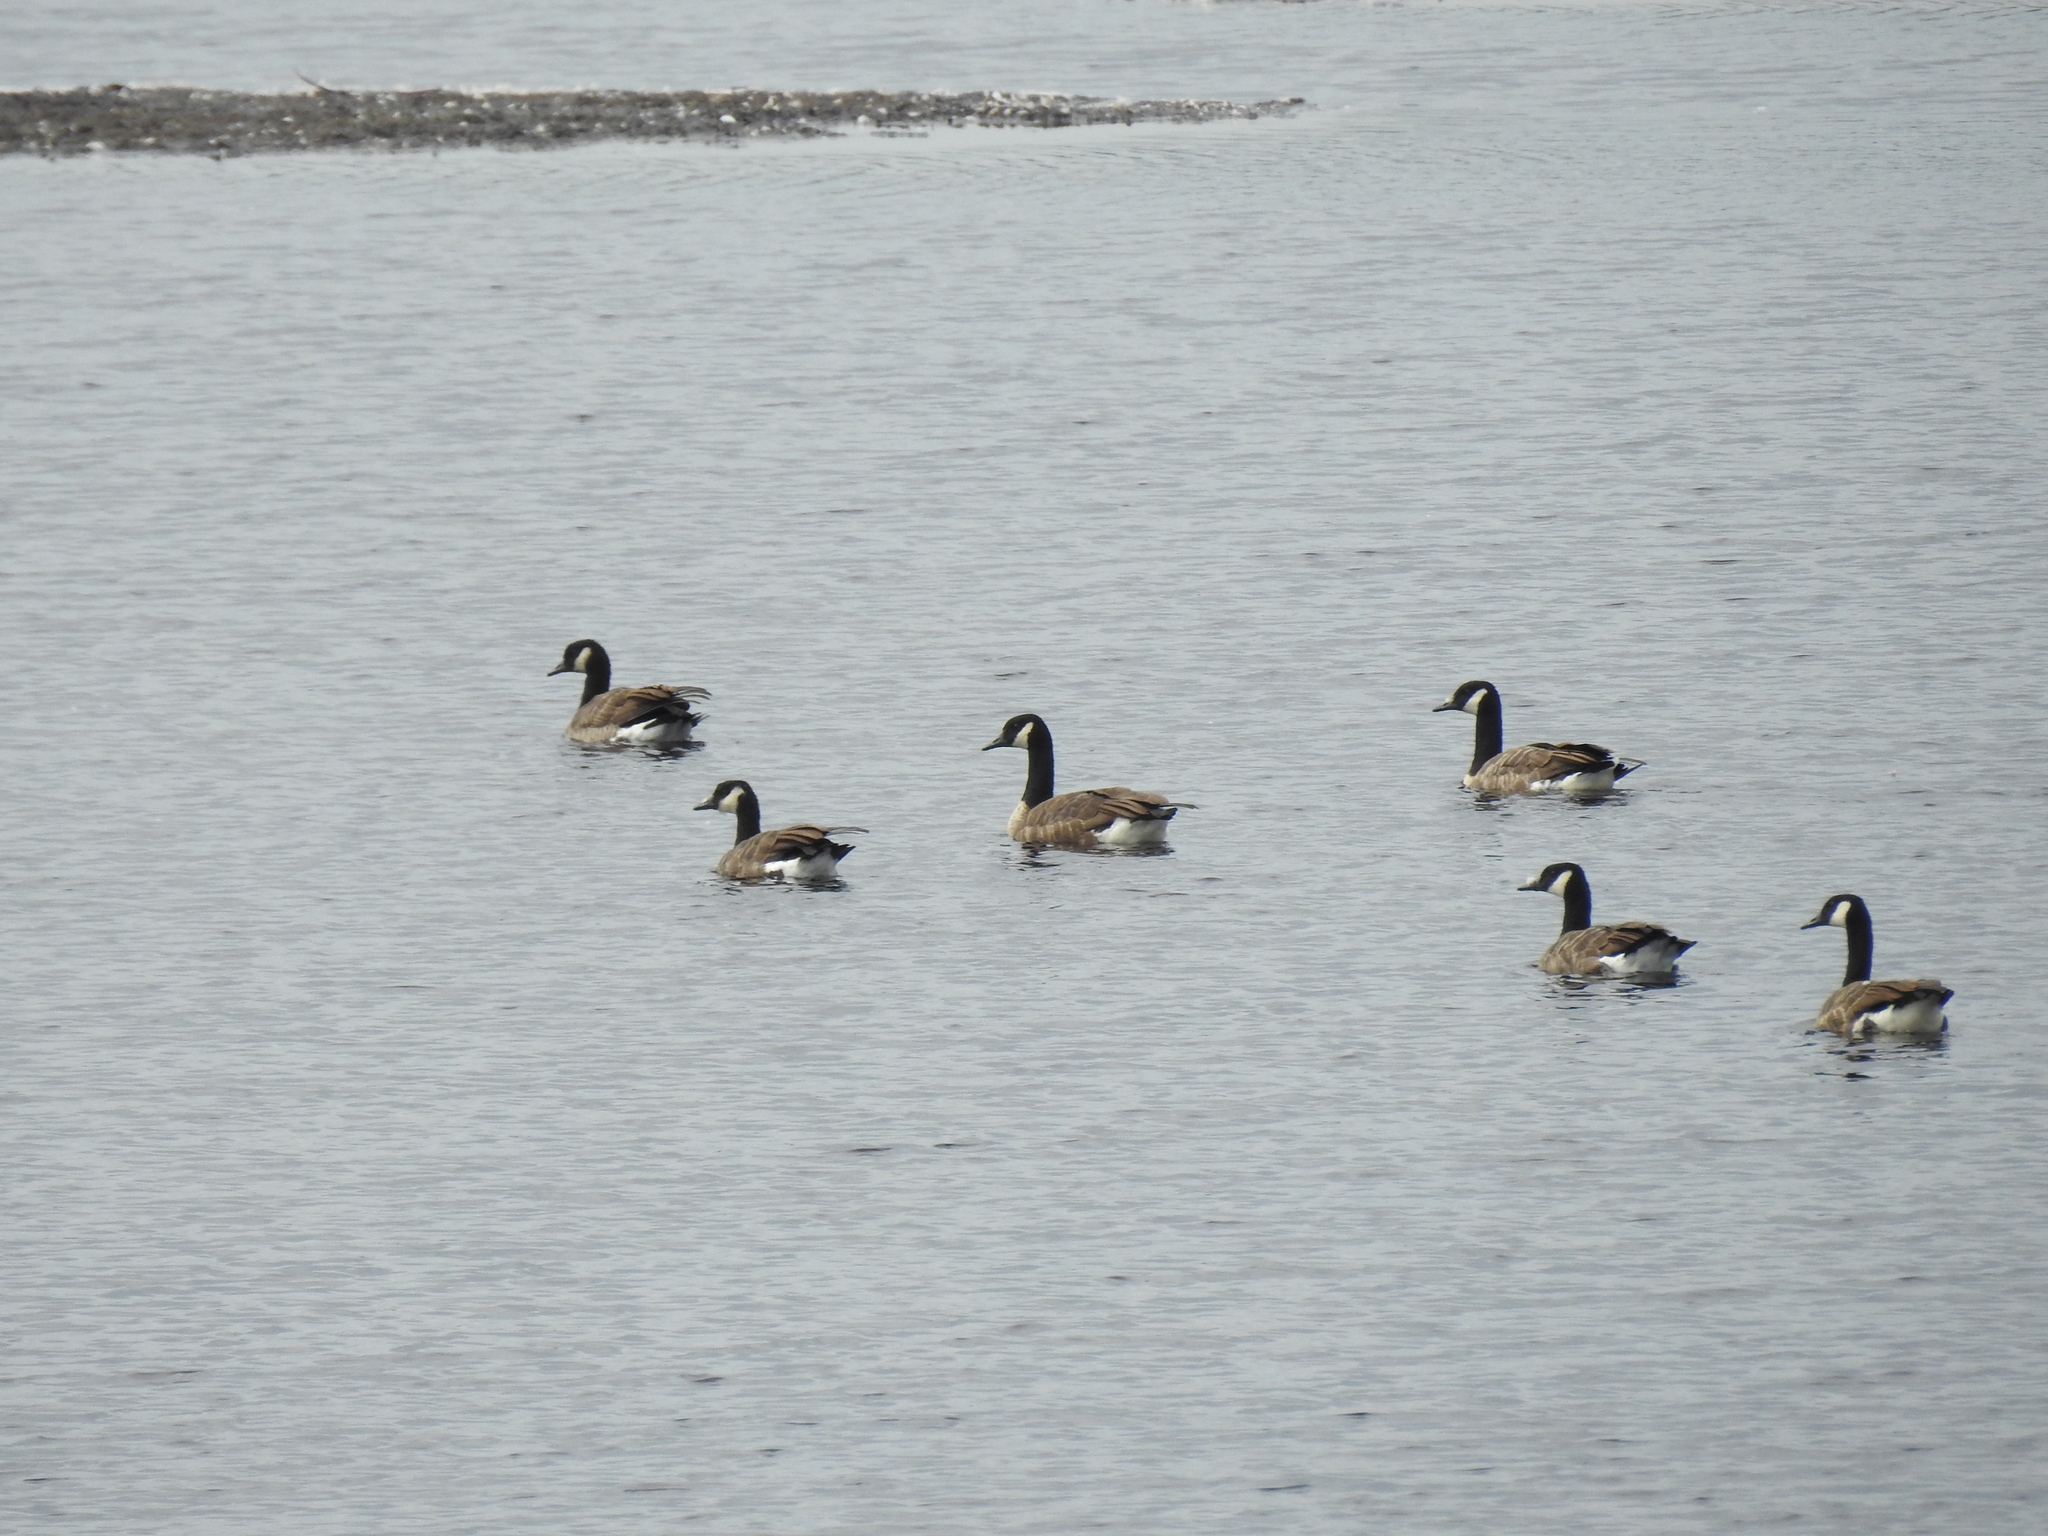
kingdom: Animalia
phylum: Chordata
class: Aves
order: Anseriformes
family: Anatidae
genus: Branta
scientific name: Branta canadensis
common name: Canada goose
